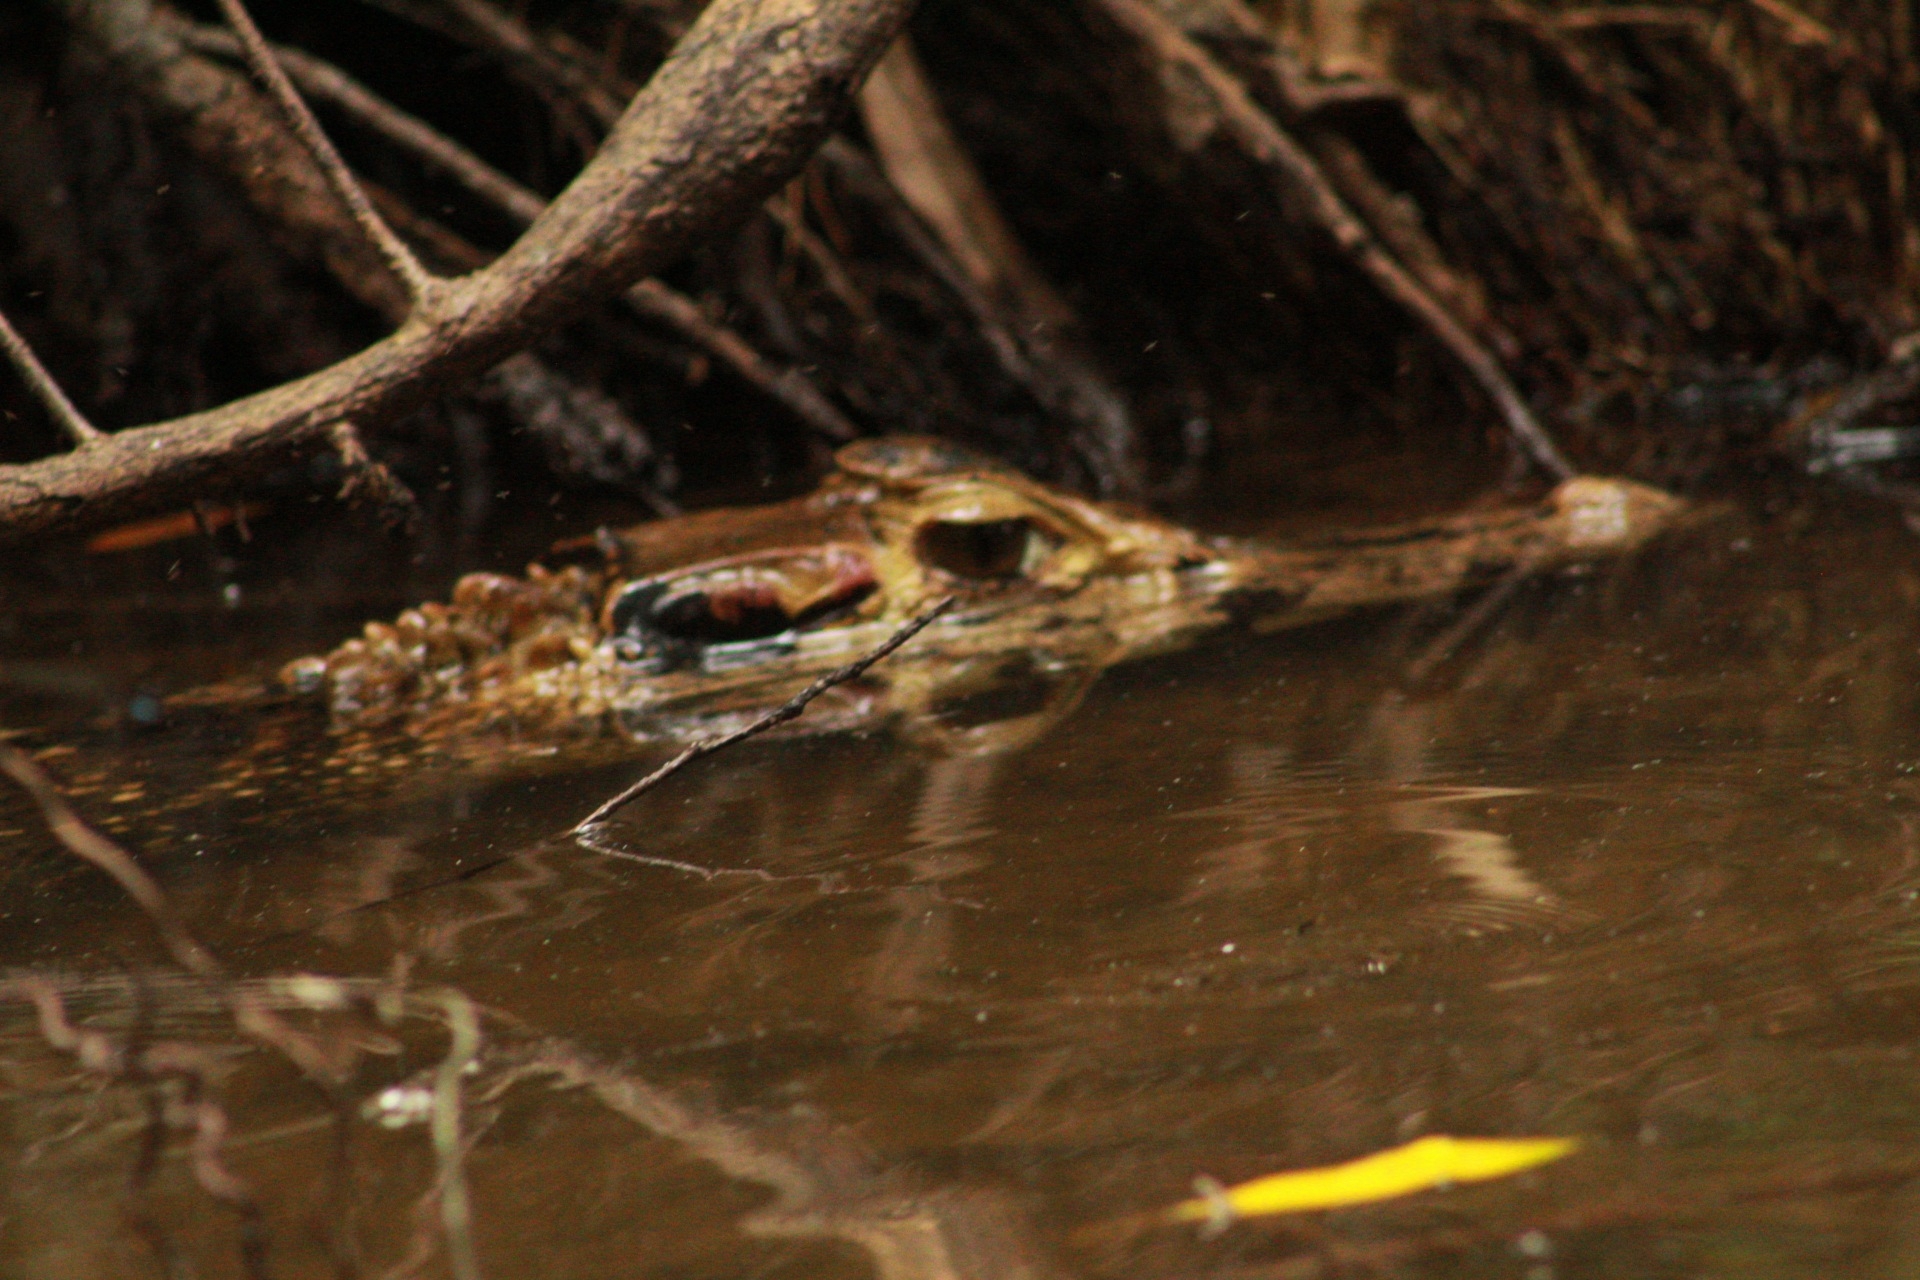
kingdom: Animalia
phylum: Chordata
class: Crocodylia
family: Alligatoridae
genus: Melanosuchus
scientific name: Melanosuchus niger
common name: Black caiman
